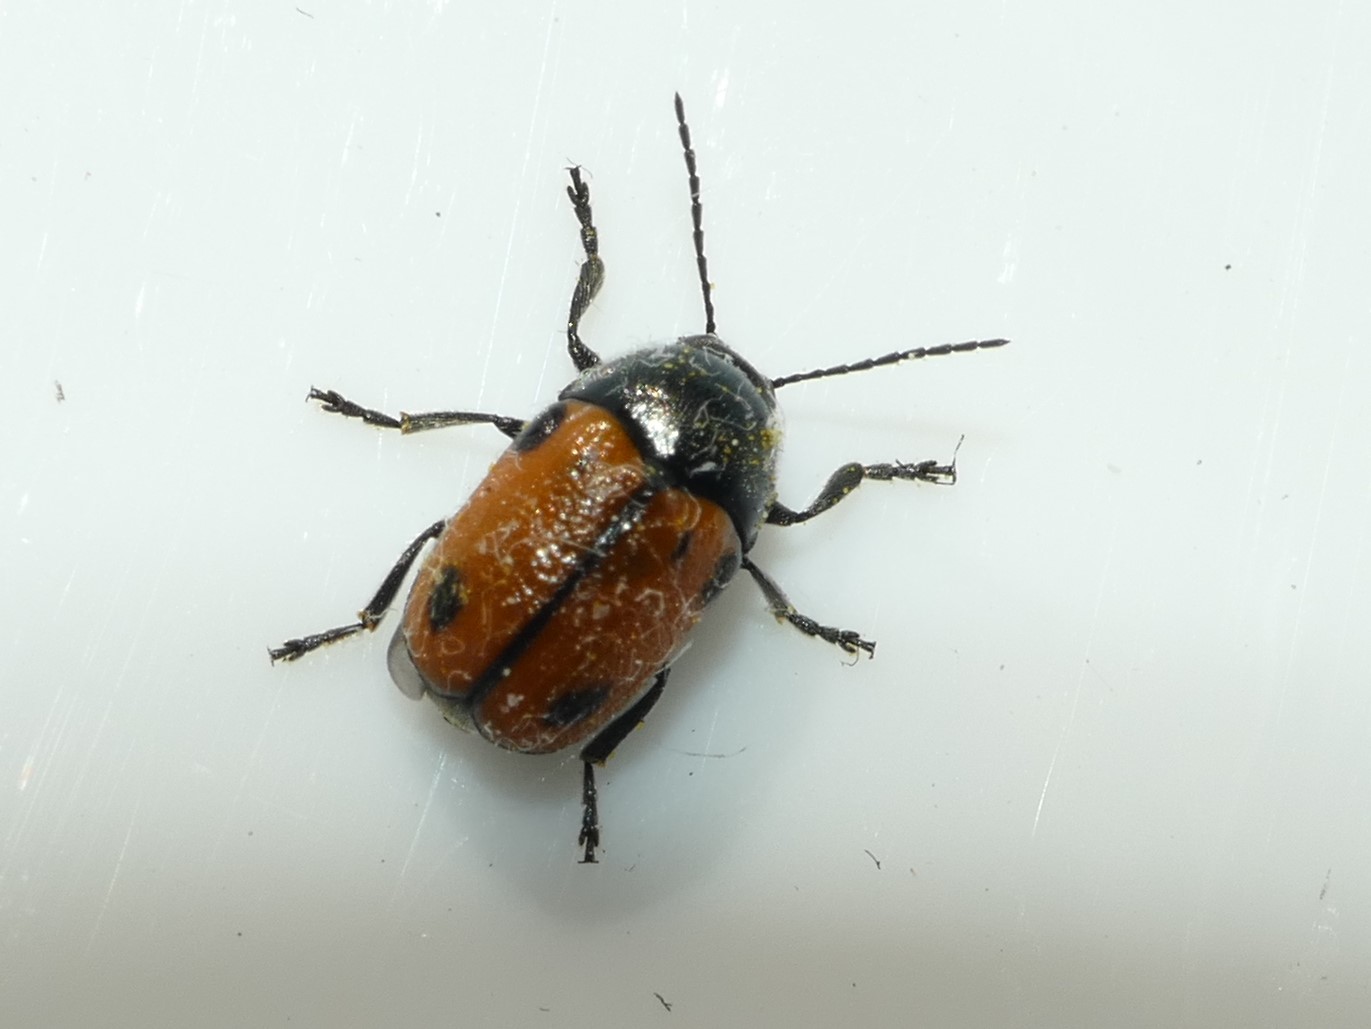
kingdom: Animalia
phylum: Arthropoda
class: Insecta
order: Coleoptera
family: Chrysomelidae
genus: Cryptocephalus
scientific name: Cryptocephalus rugicollis
